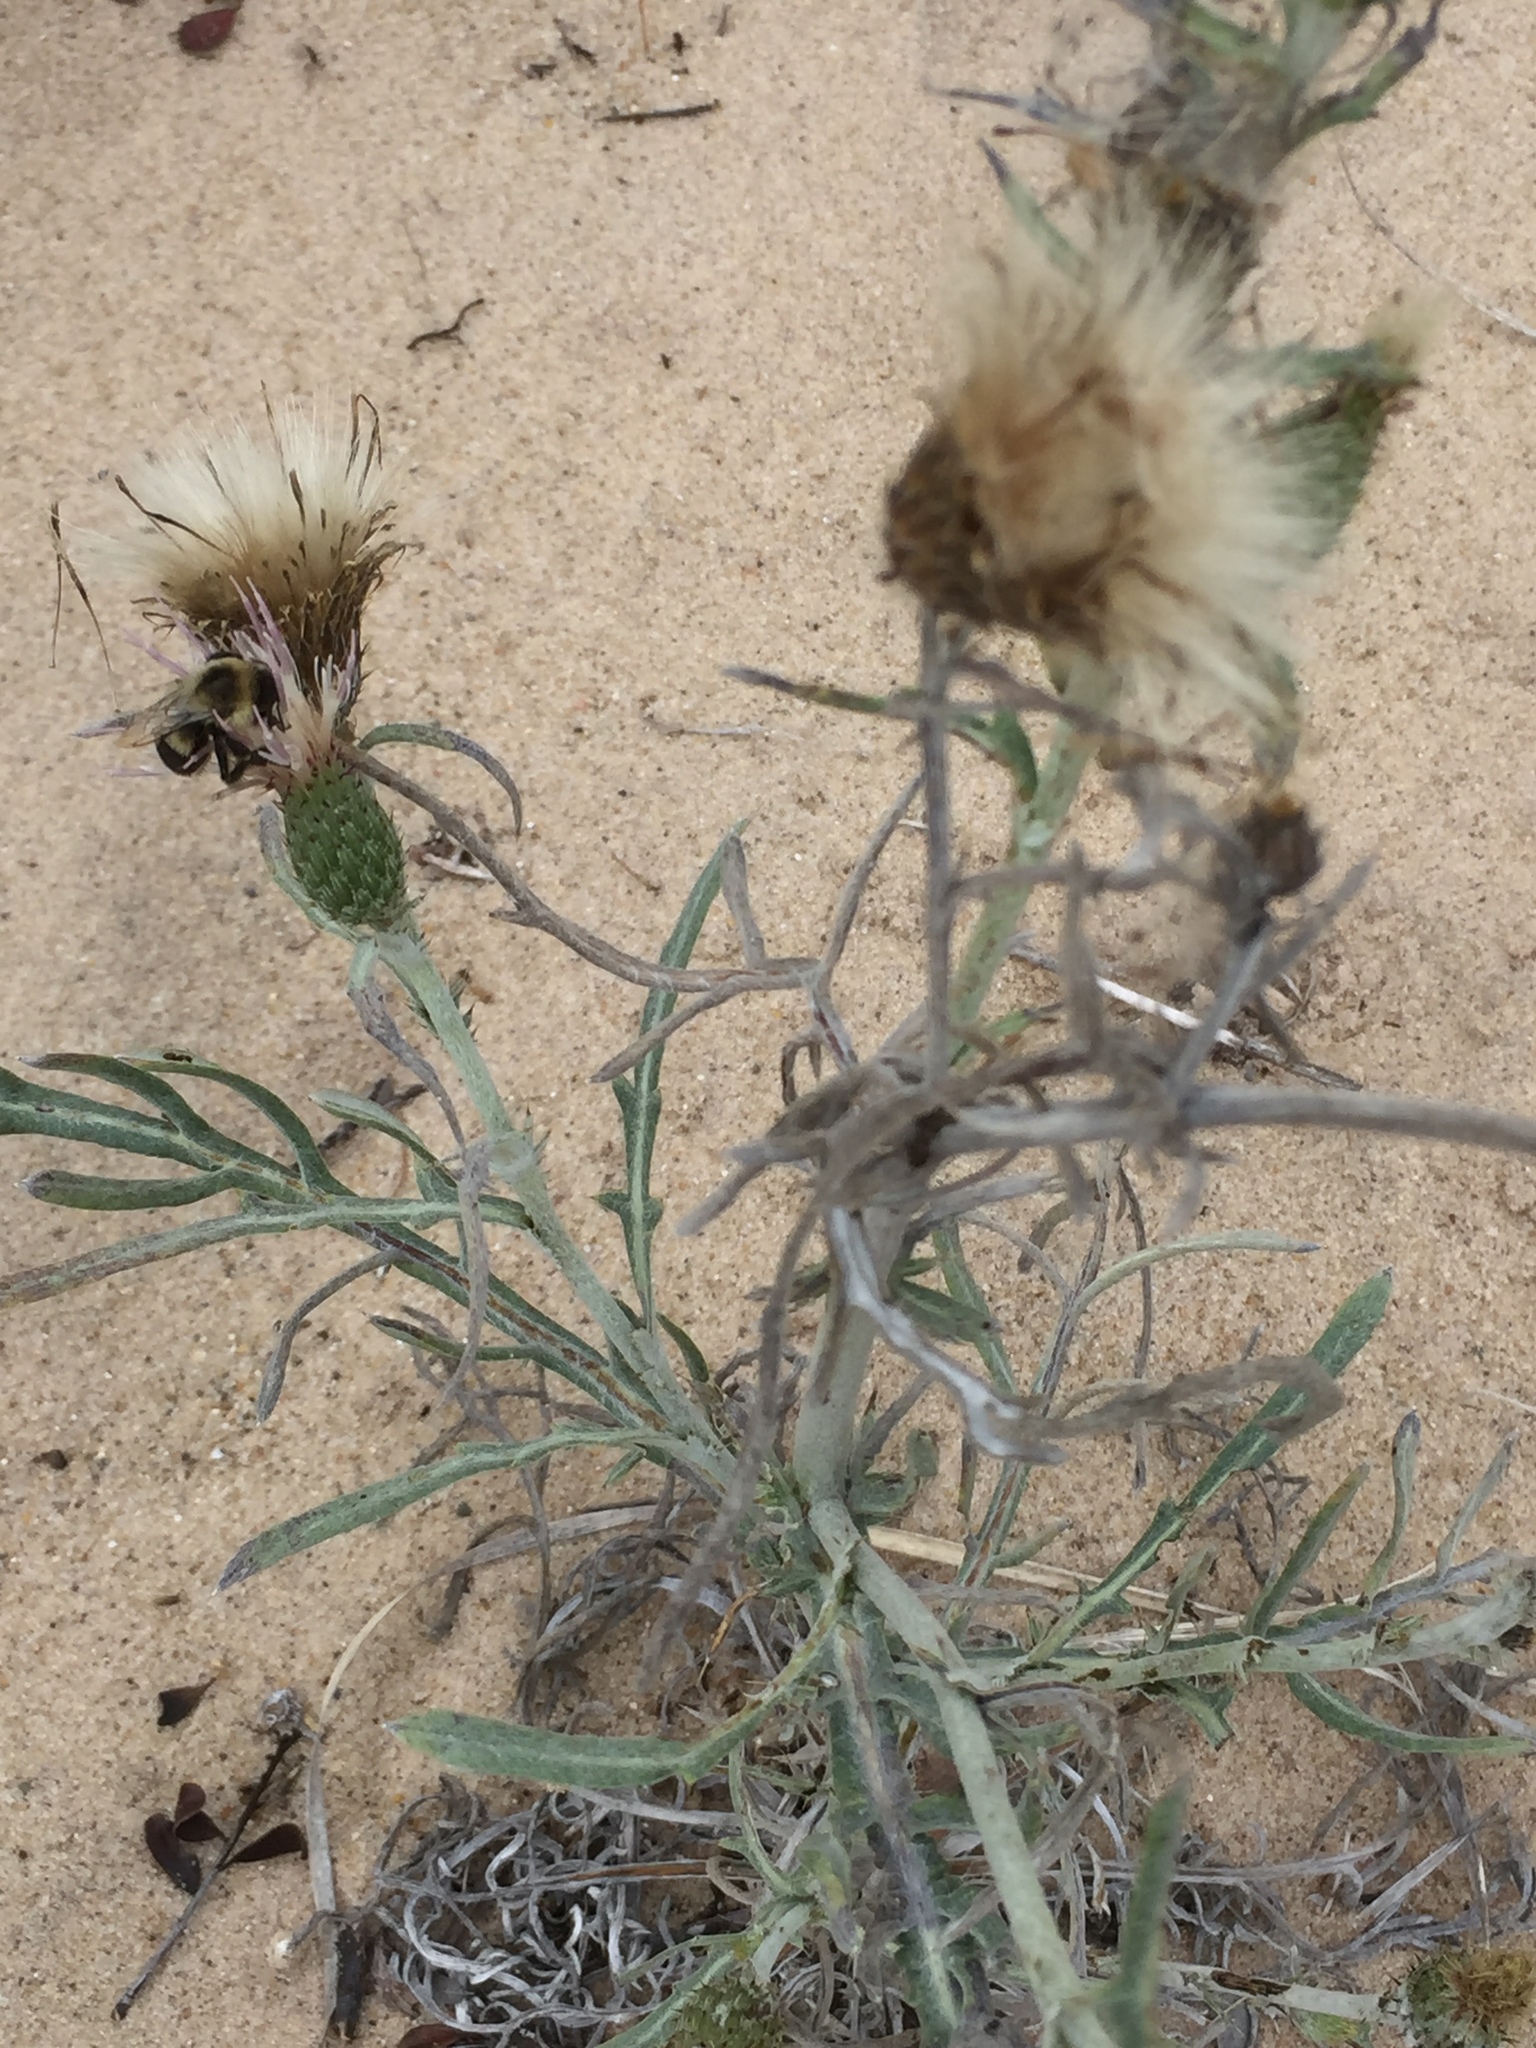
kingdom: Plantae
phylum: Tracheophyta
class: Magnoliopsida
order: Asterales
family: Asteraceae
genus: Cirsium
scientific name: Cirsium pitcheri
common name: Dune thistle
